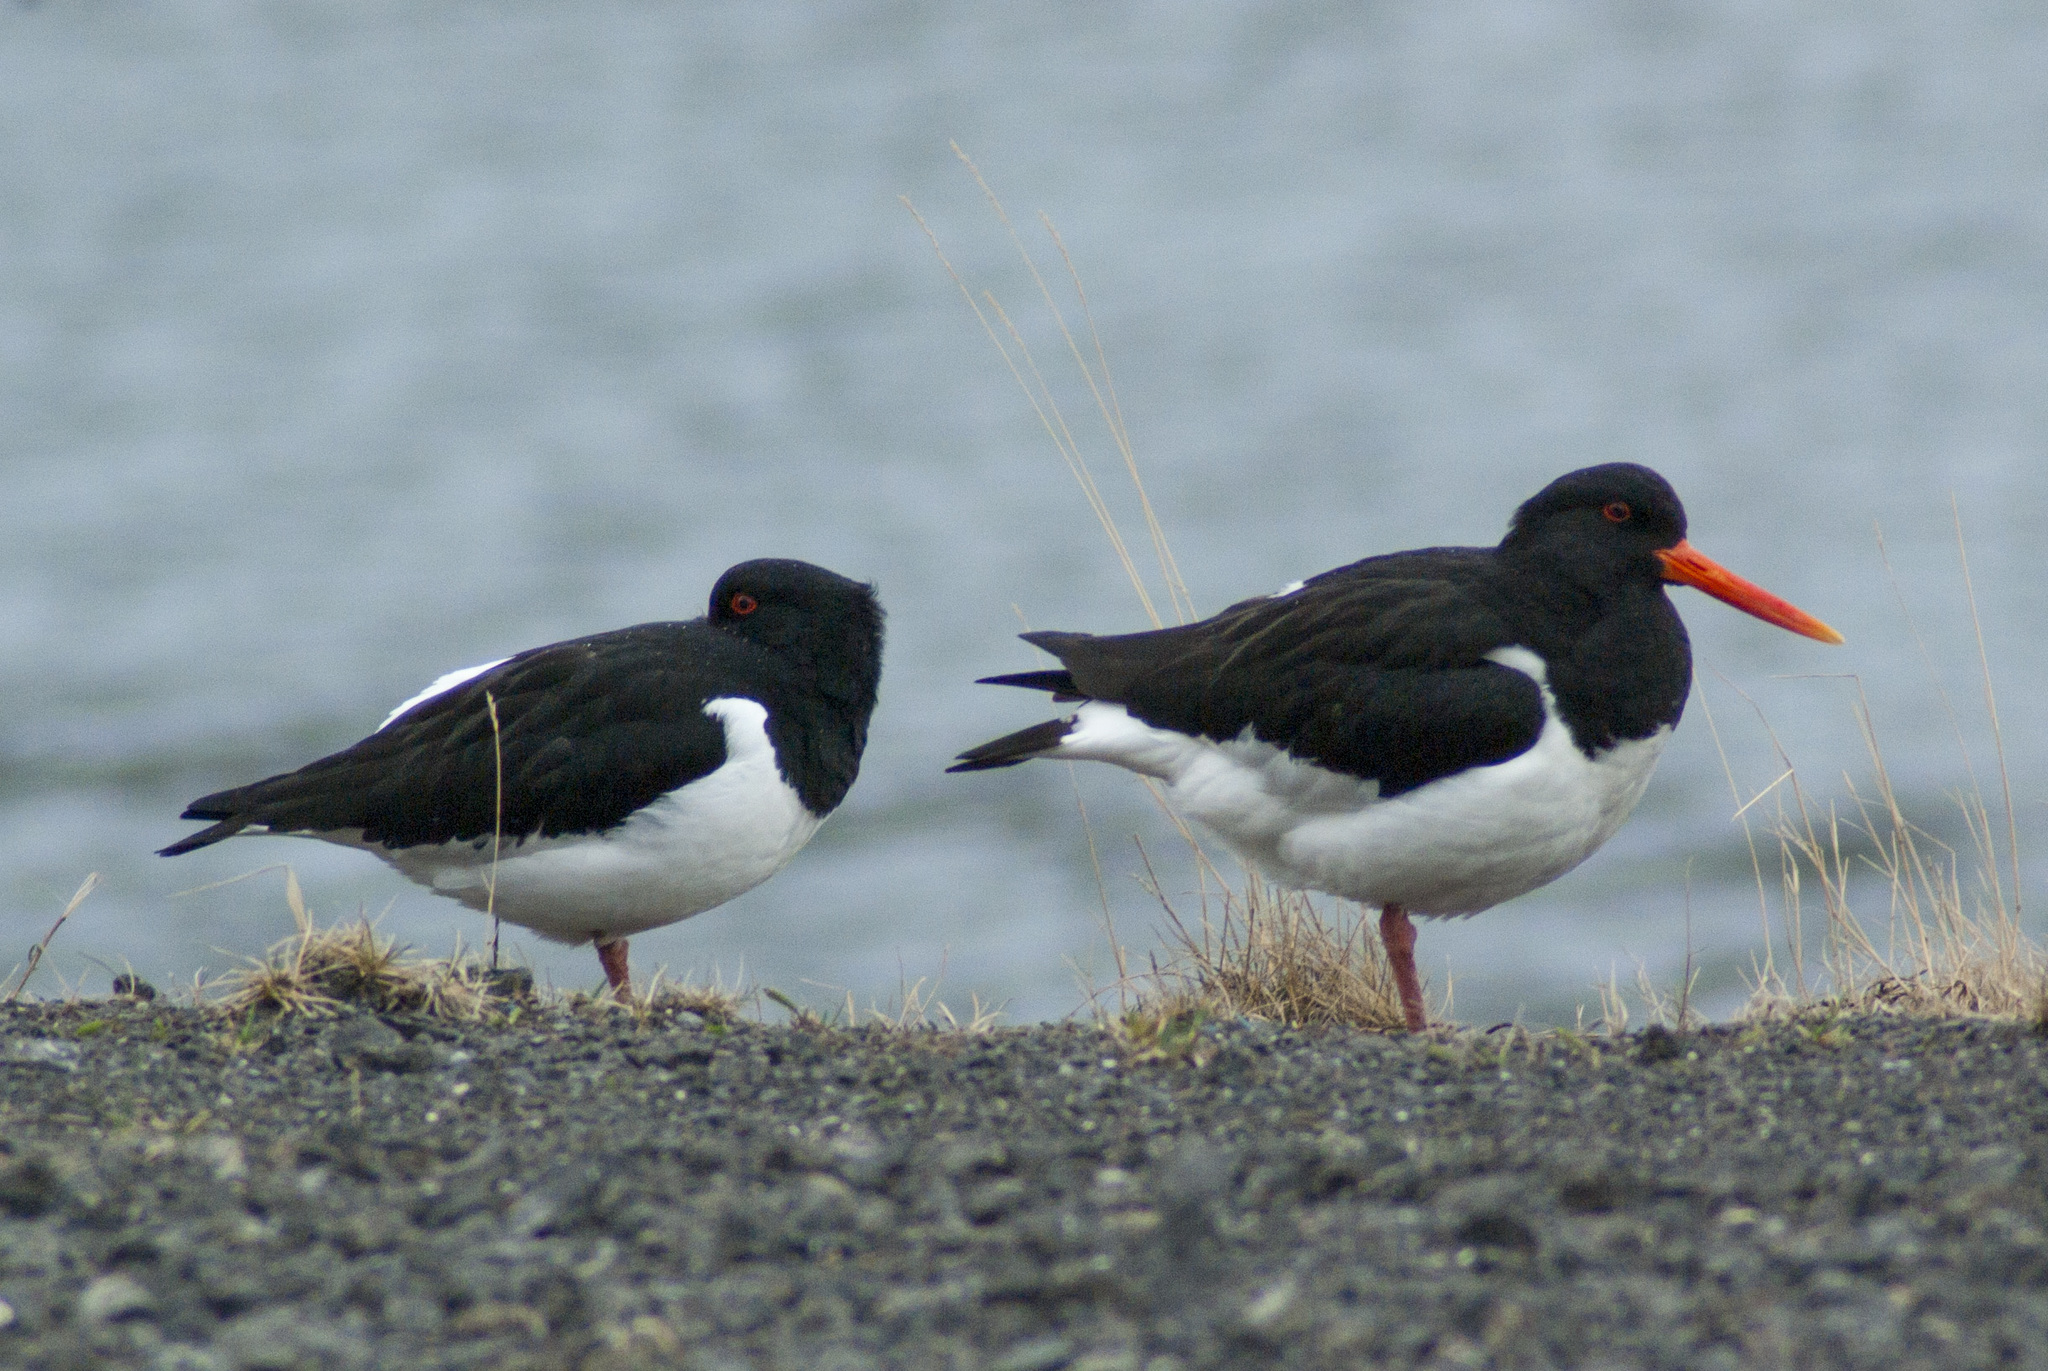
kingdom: Animalia
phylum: Chordata
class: Aves
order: Charadriiformes
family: Haematopodidae
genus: Haematopus
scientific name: Haematopus ostralegus
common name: Eurasian oystercatcher
